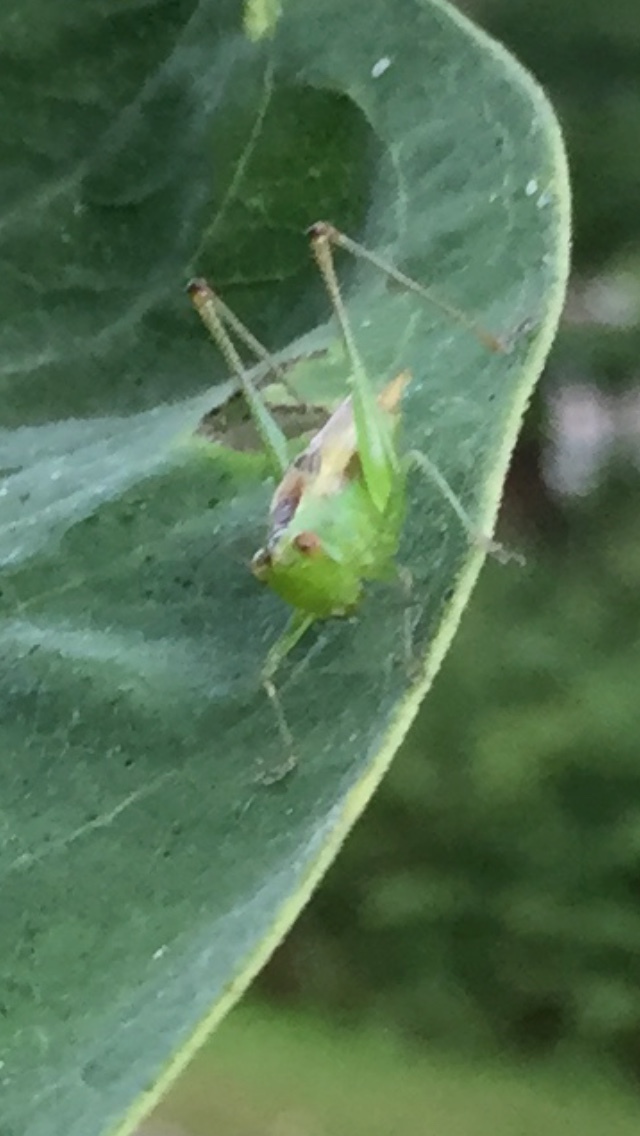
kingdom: Animalia
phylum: Arthropoda
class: Insecta
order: Orthoptera
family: Tettigoniidae
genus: Conocephalus
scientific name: Conocephalus brevipennis
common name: Short-winged meadow katydid
